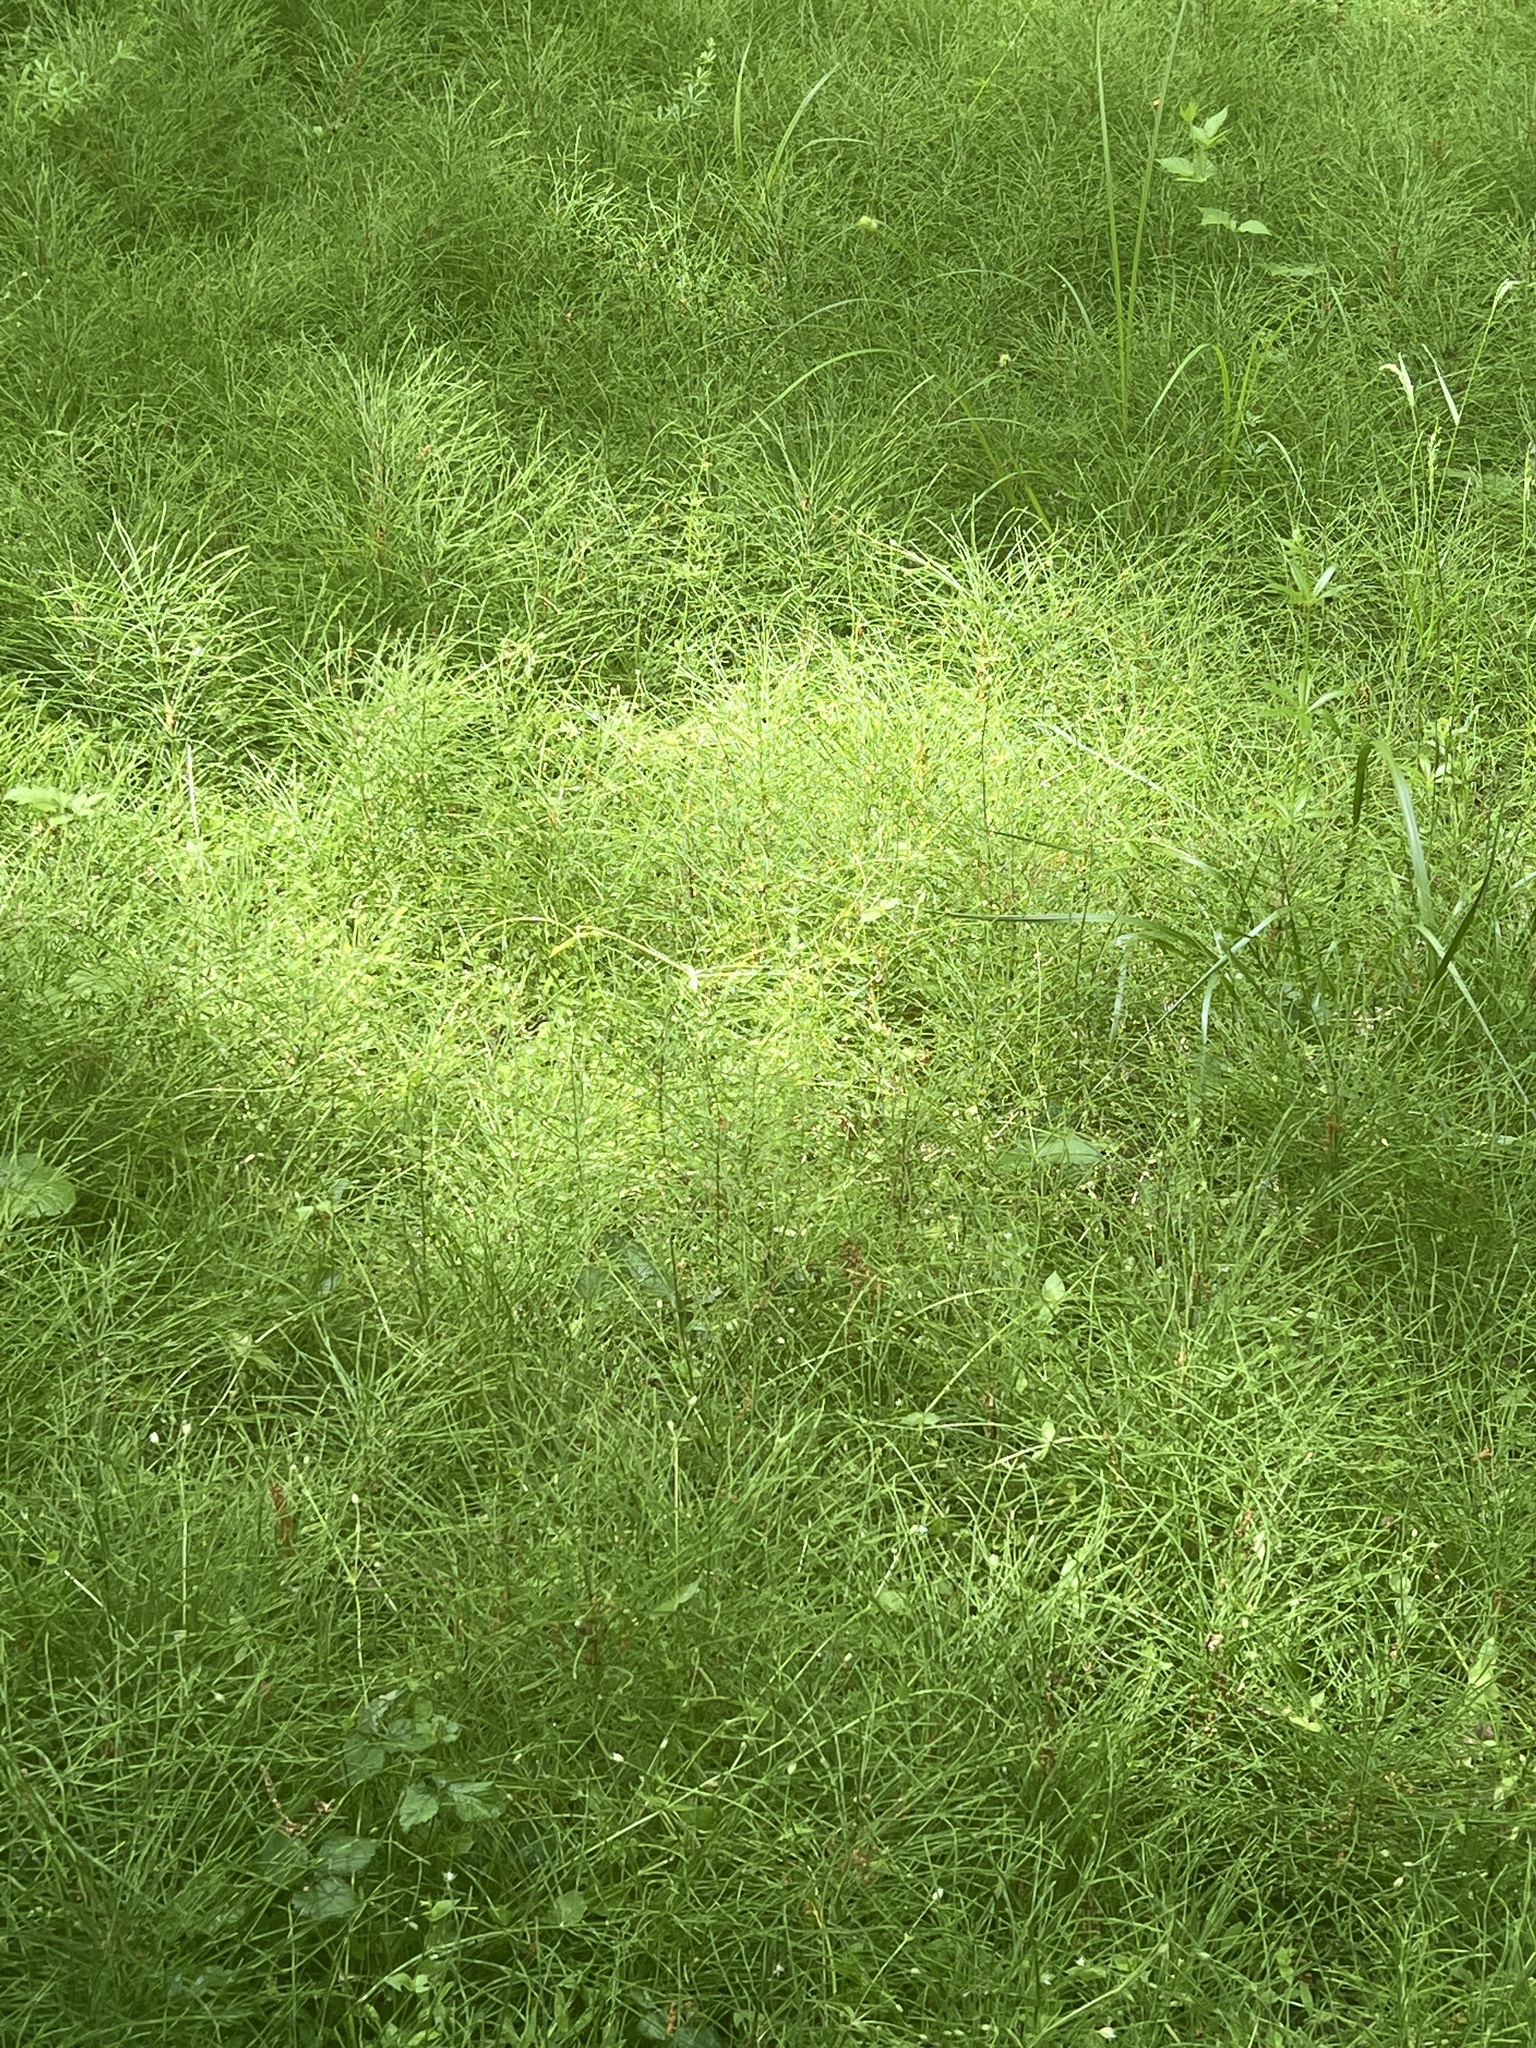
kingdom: Plantae
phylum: Tracheophyta
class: Polypodiopsida
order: Equisetales
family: Equisetaceae
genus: Equisetum
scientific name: Equisetum arvense
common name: Field horsetail
